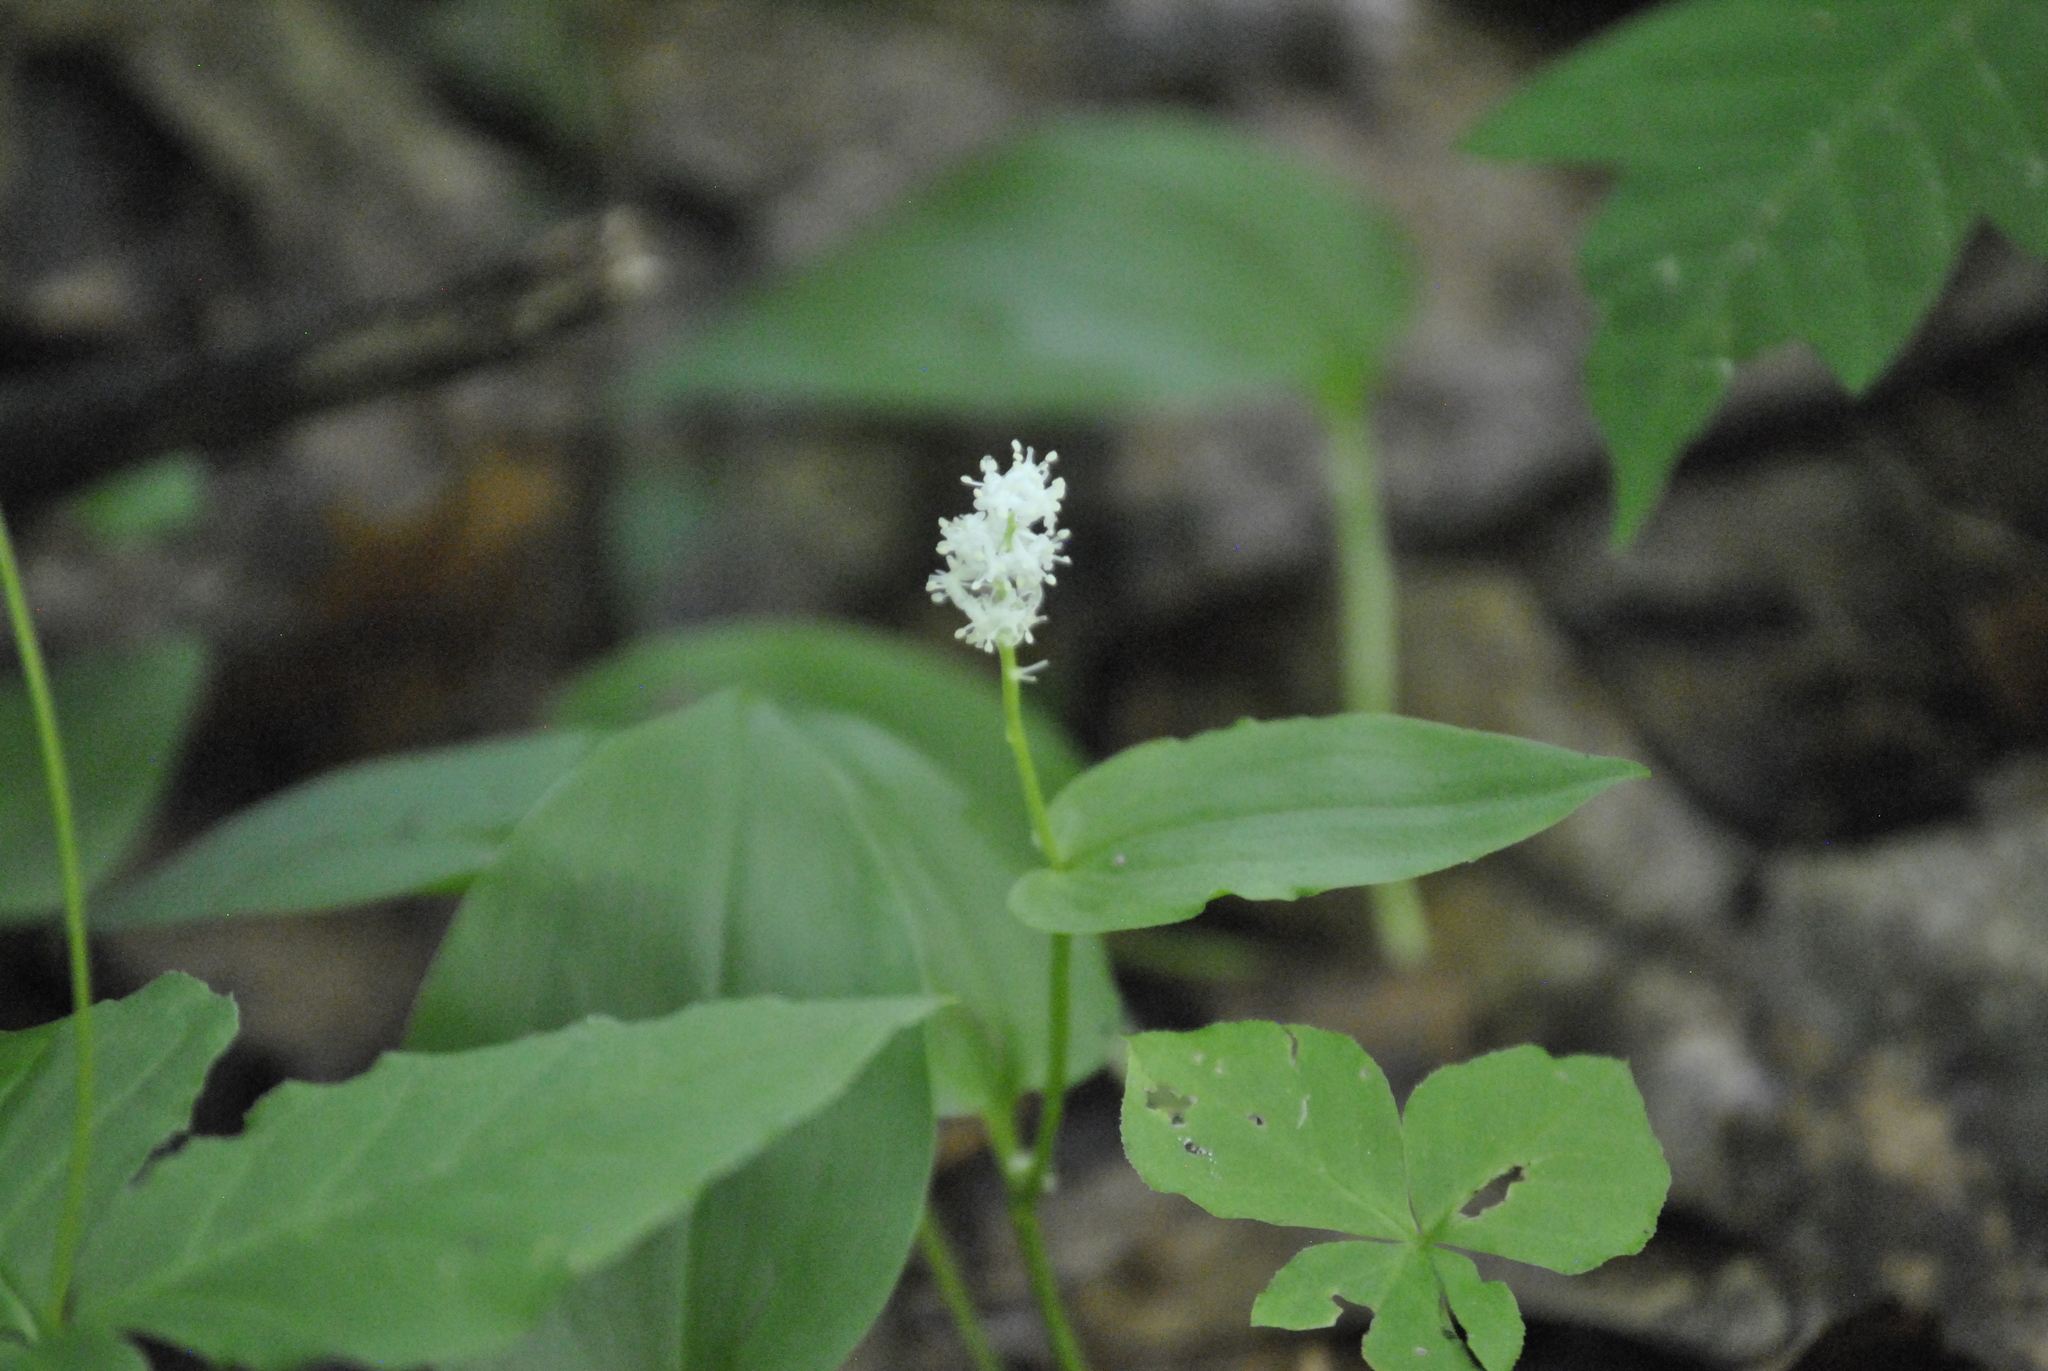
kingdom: Plantae
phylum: Tracheophyta
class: Liliopsida
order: Asparagales
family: Asparagaceae
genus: Maianthemum
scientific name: Maianthemum canadense
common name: False lily-of-the-valley
